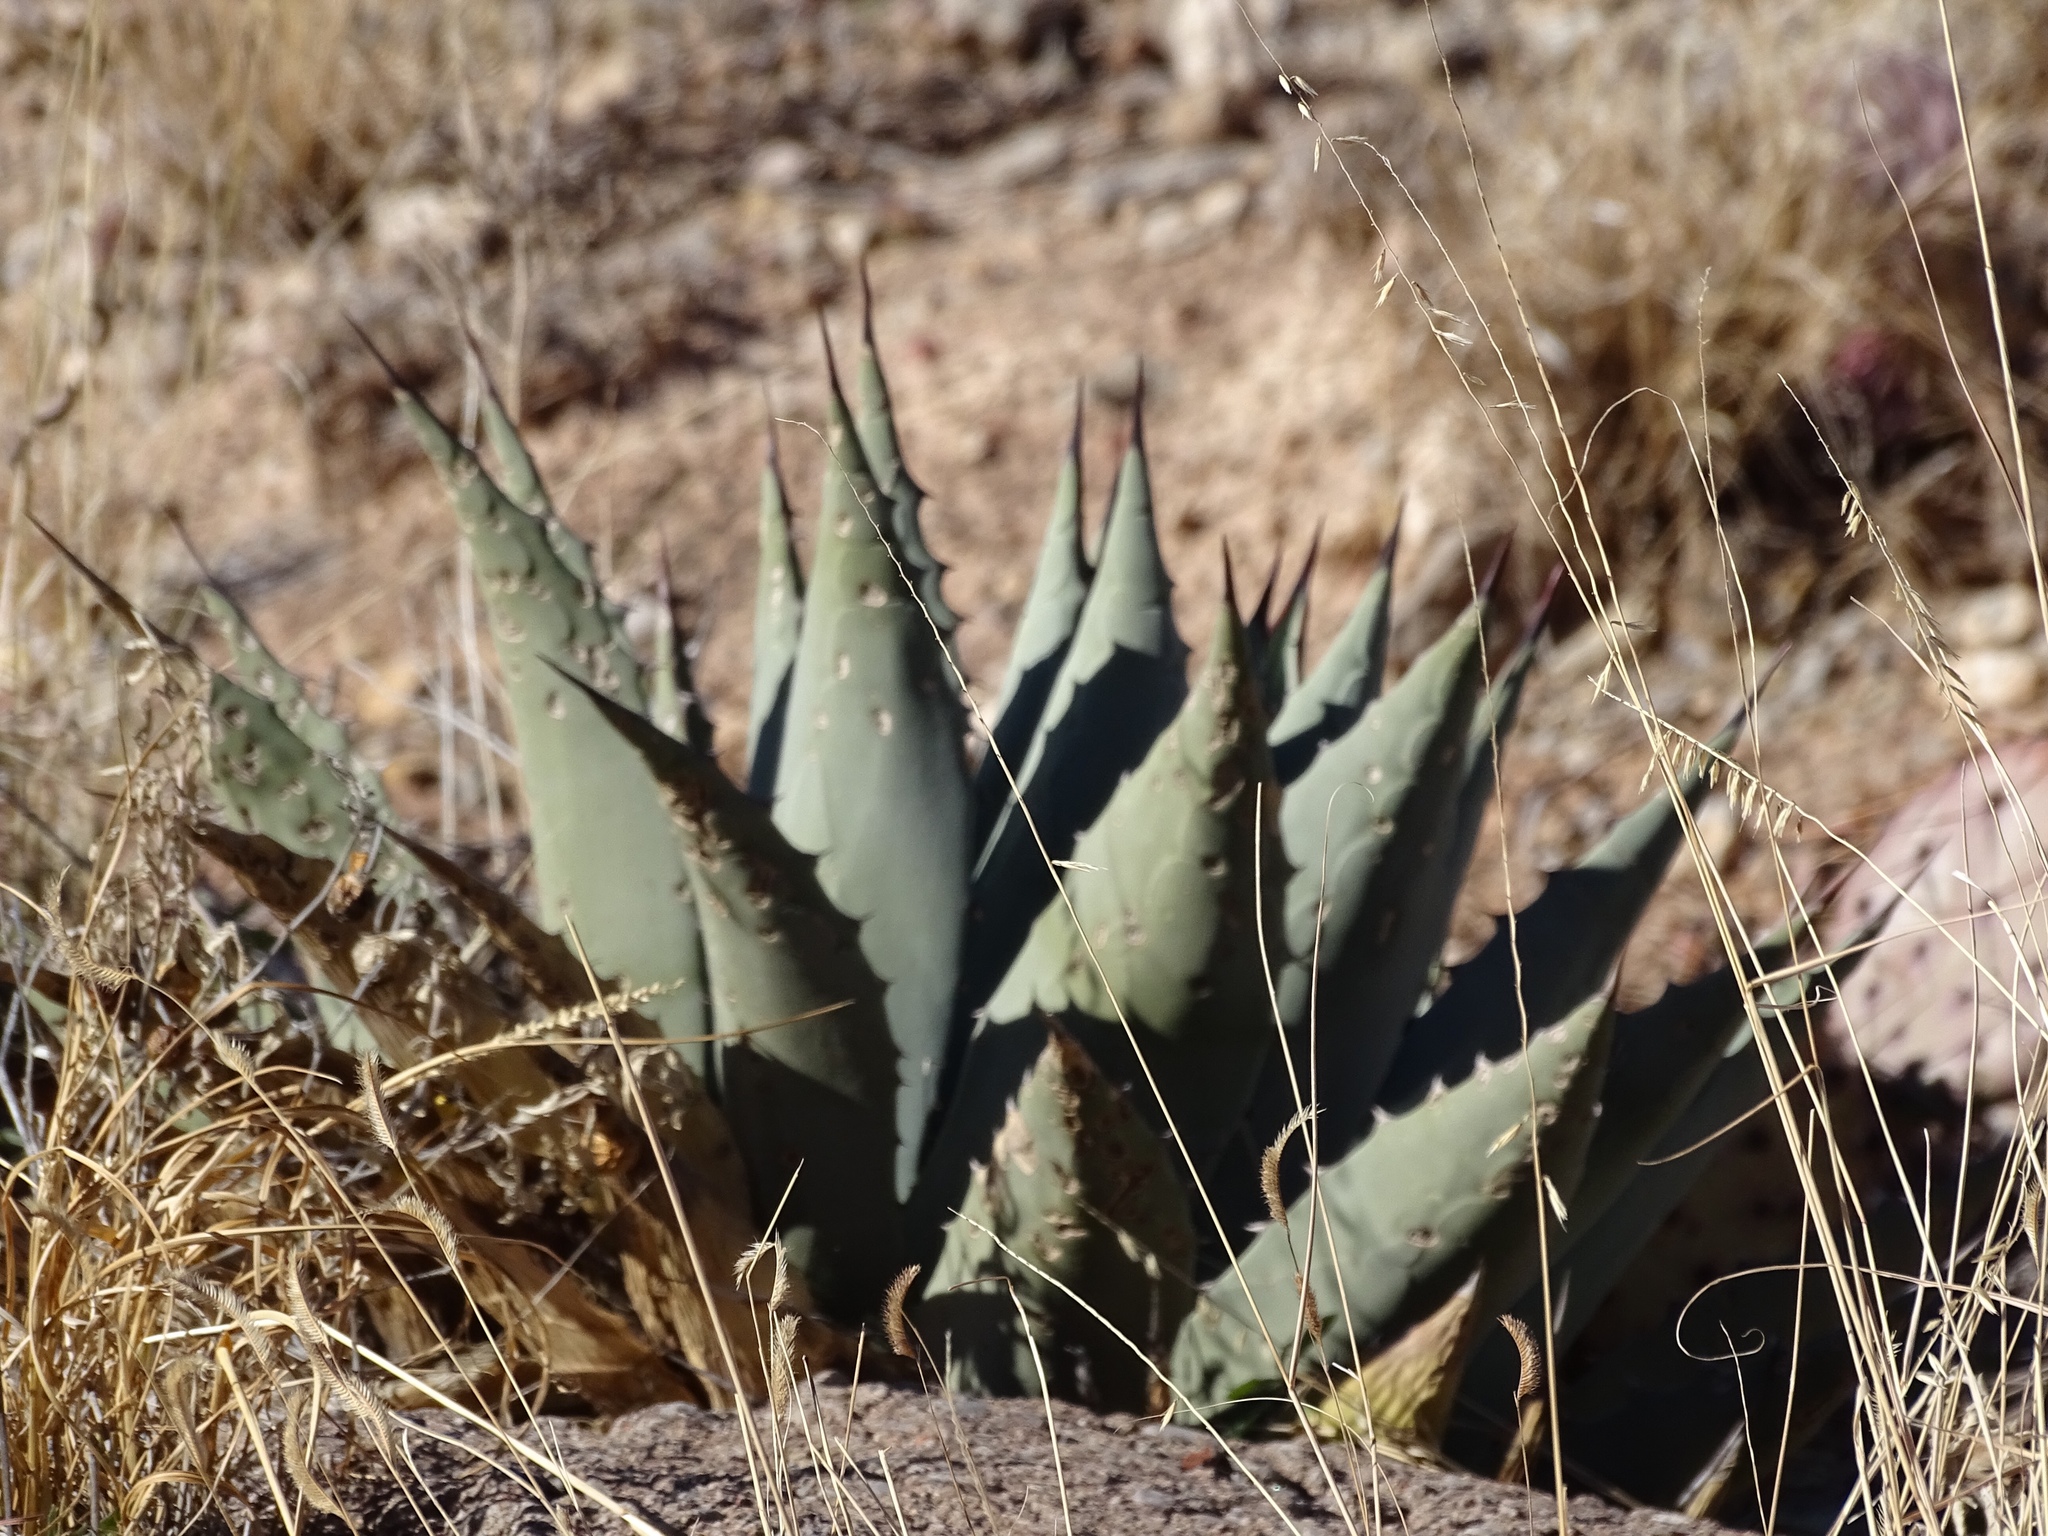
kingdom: Plantae
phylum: Tracheophyta
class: Liliopsida
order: Asparagales
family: Asparagaceae
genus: Agave
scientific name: Agave parryi
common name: Parry's agave
